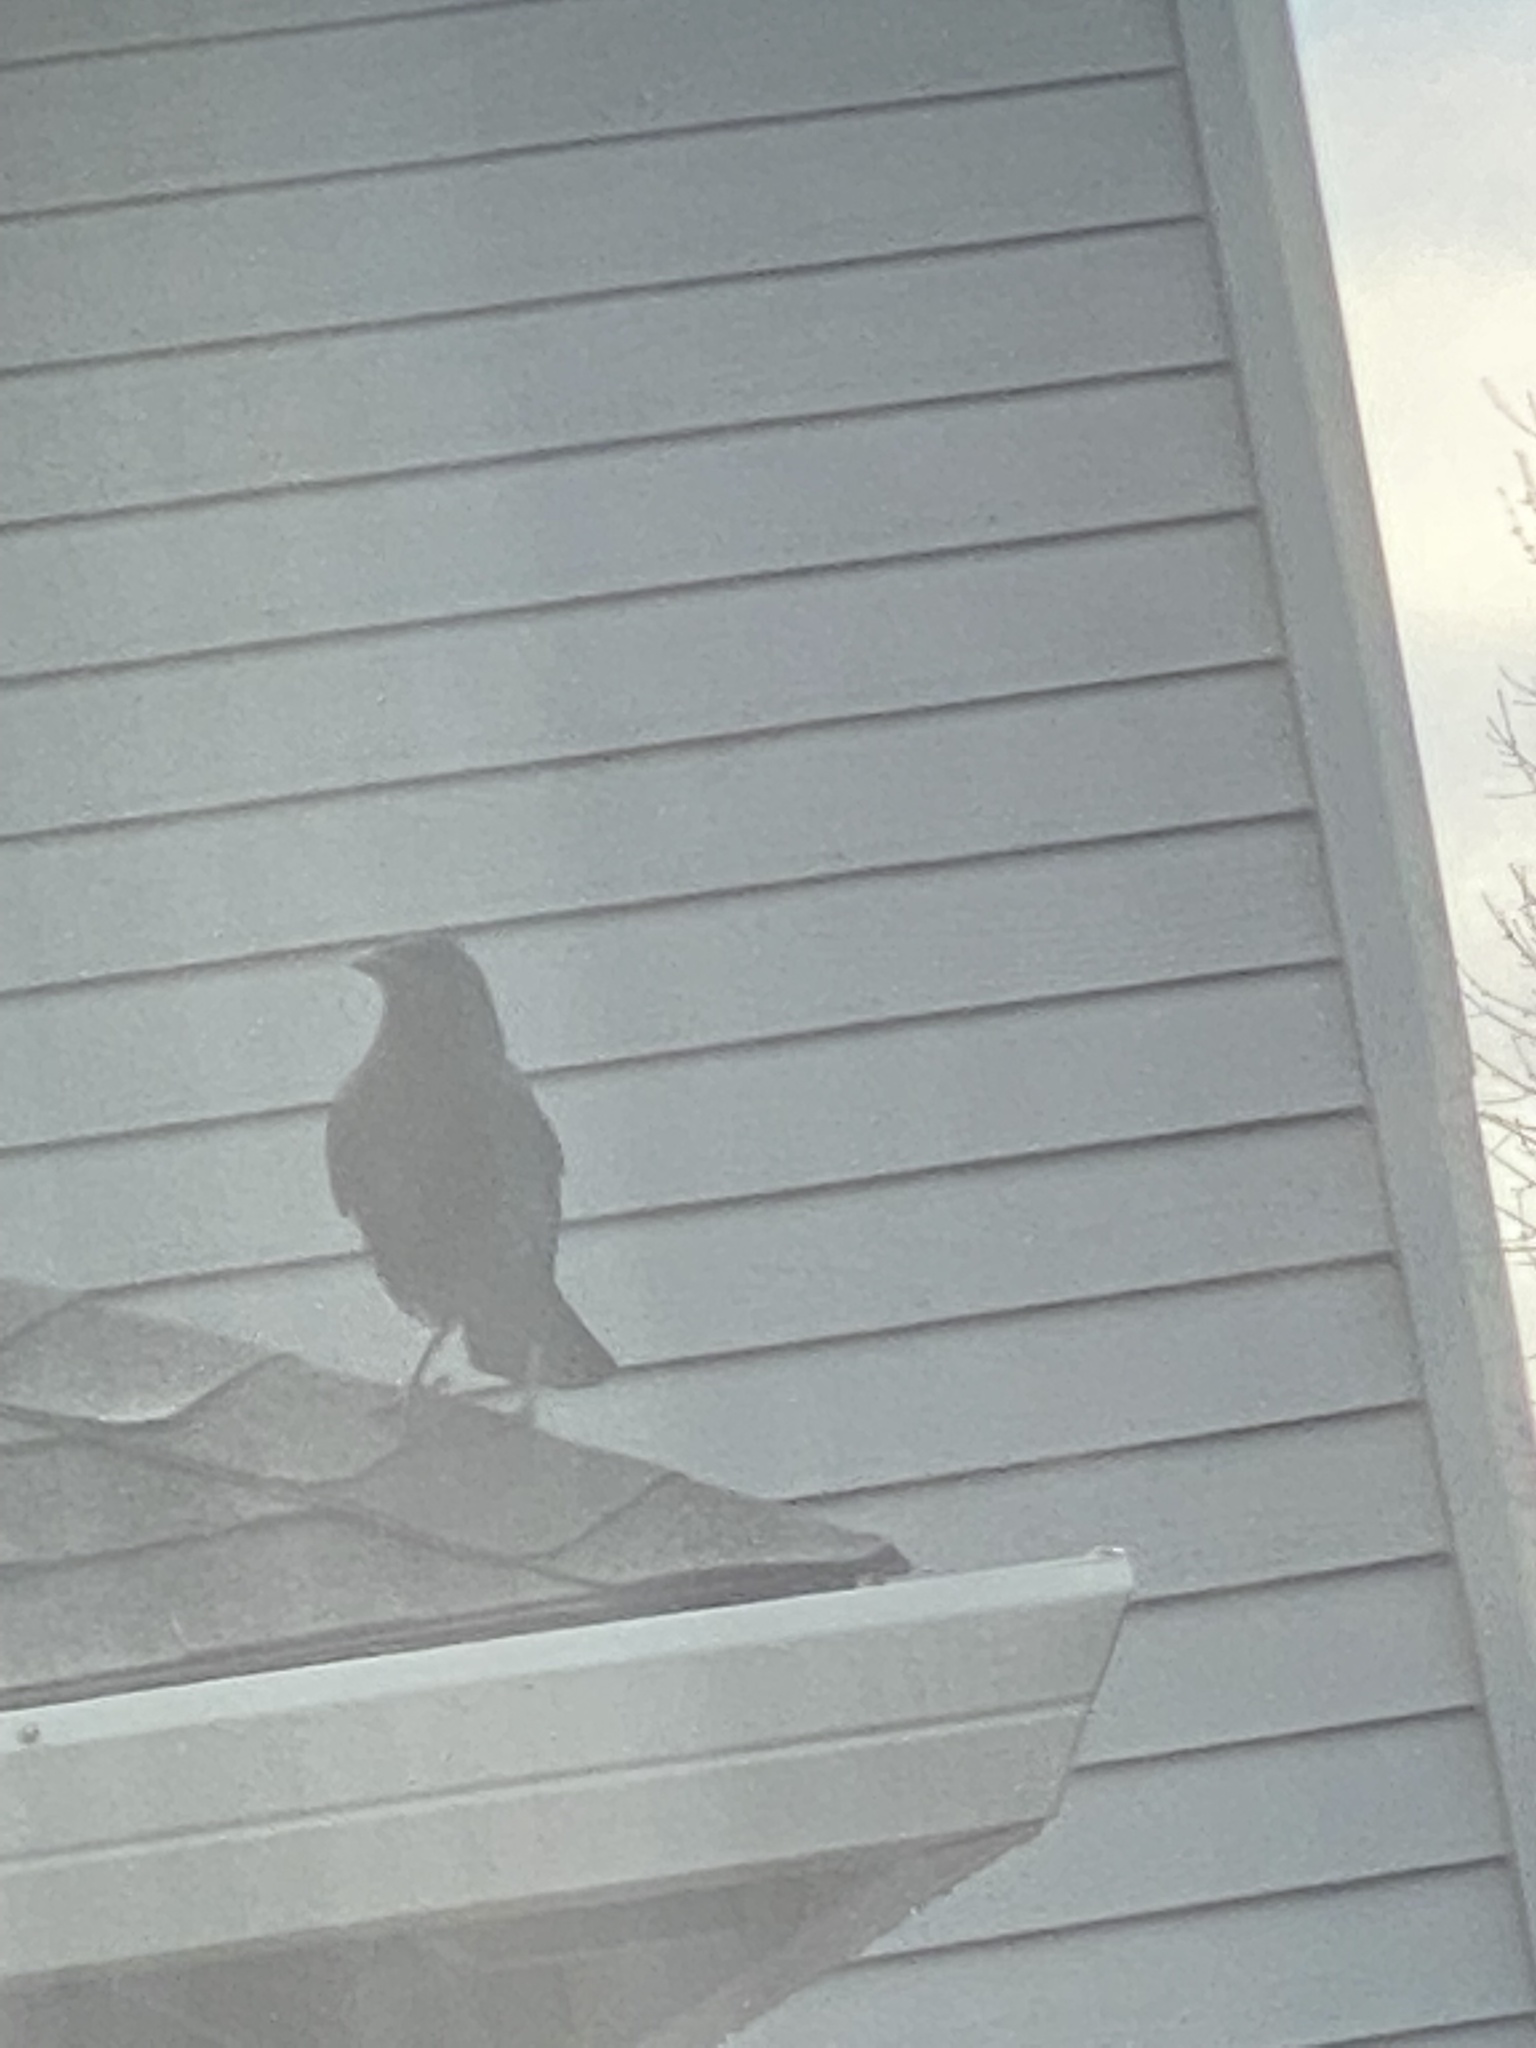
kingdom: Animalia
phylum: Chordata
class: Aves
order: Passeriformes
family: Corvidae
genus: Corvus
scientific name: Corvus brachyrhynchos
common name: American crow
